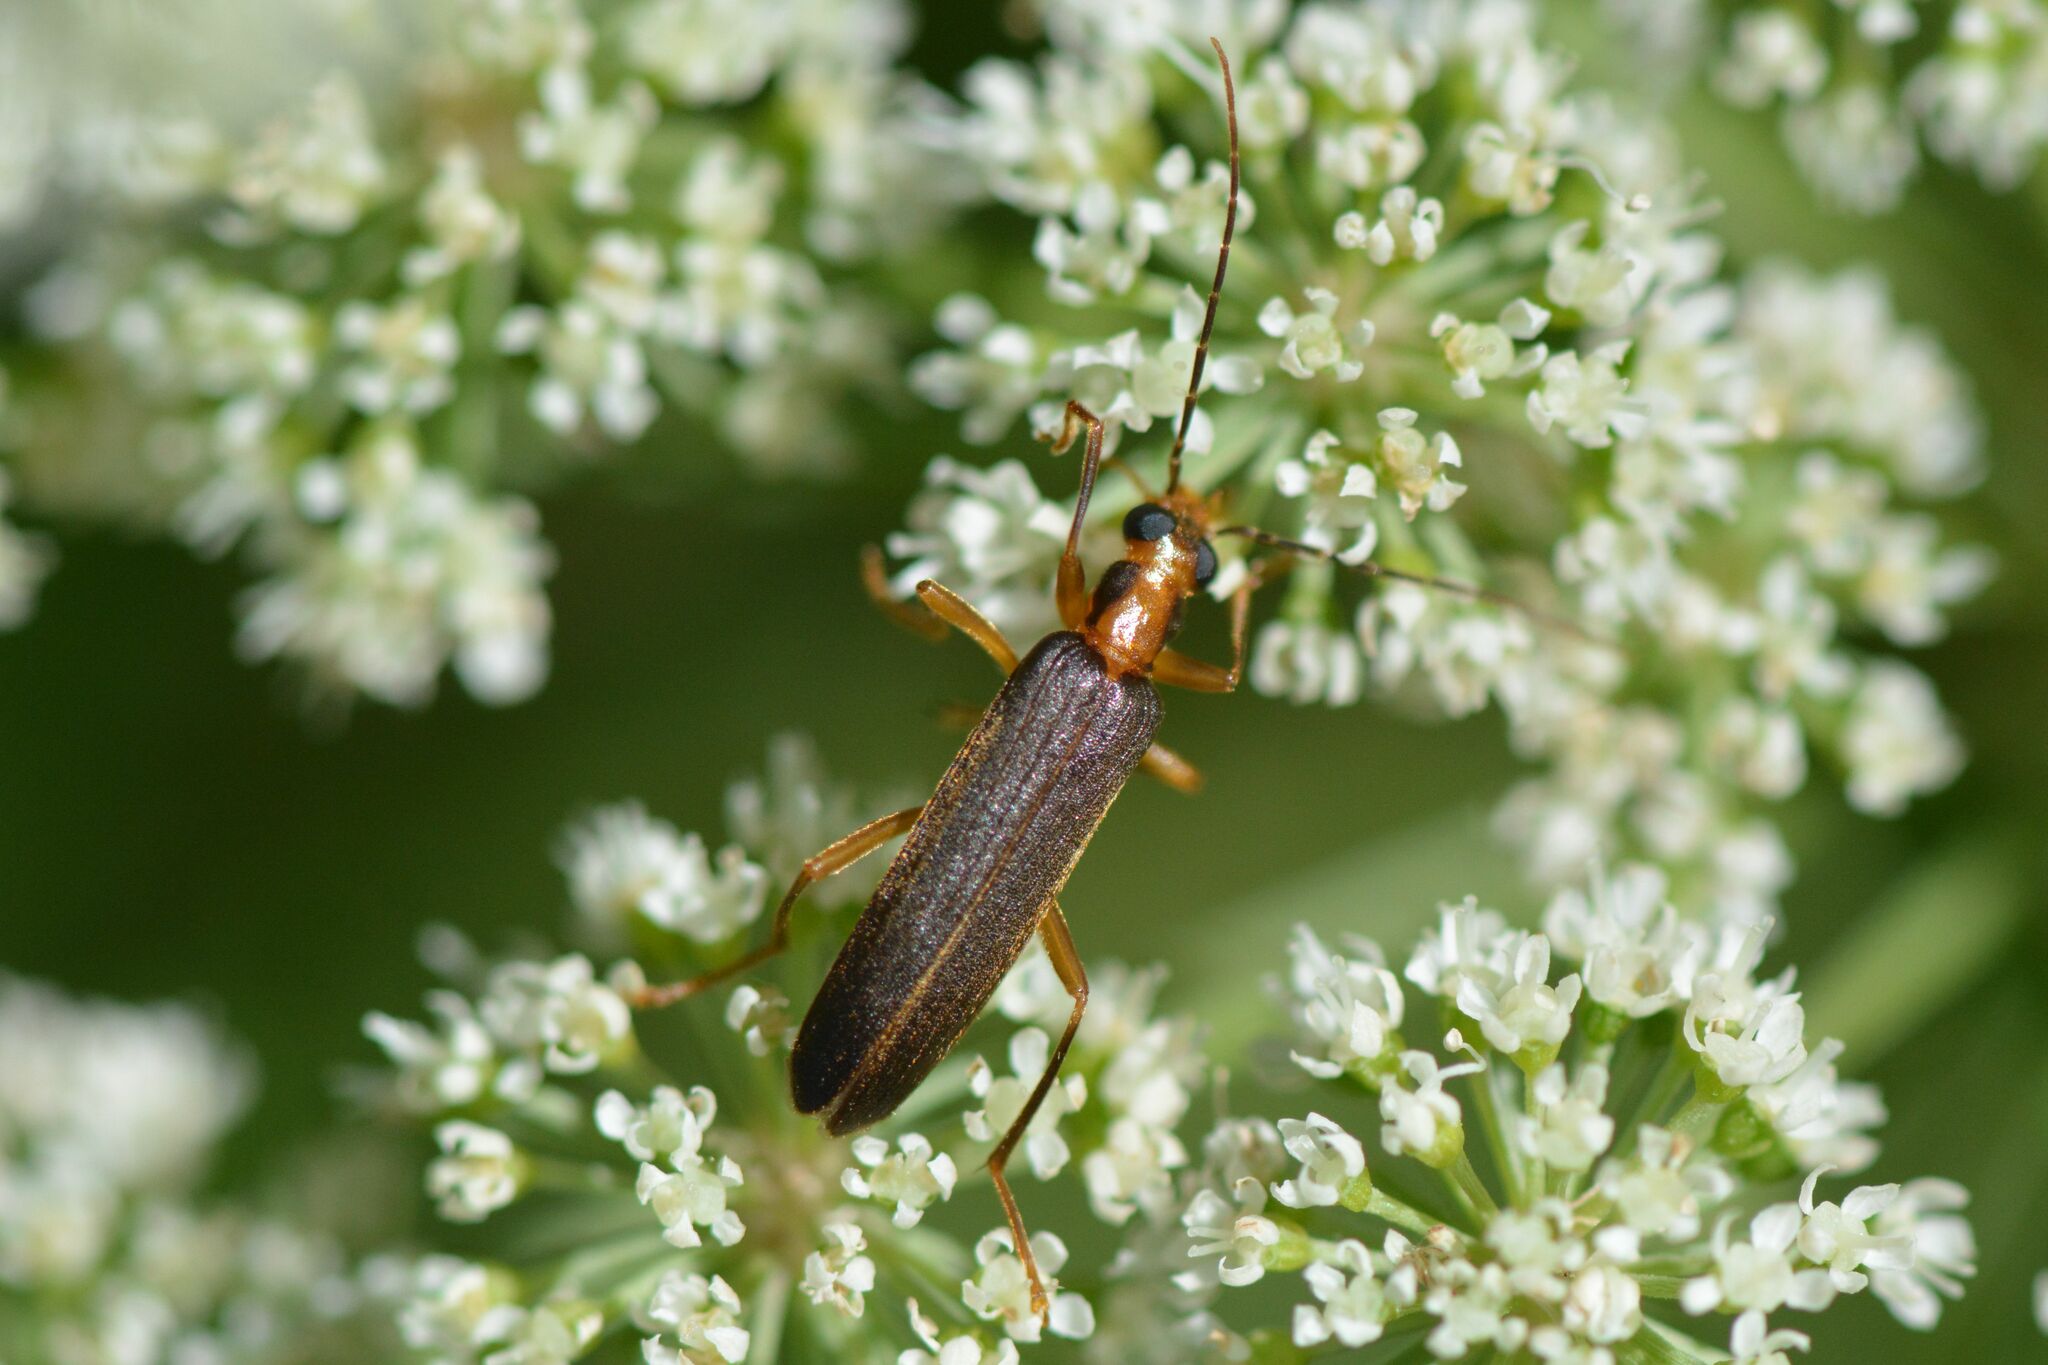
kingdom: Animalia
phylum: Arthropoda
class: Insecta
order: Coleoptera
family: Oedemeridae
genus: Nacerdes
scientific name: Nacerdes carniolica
